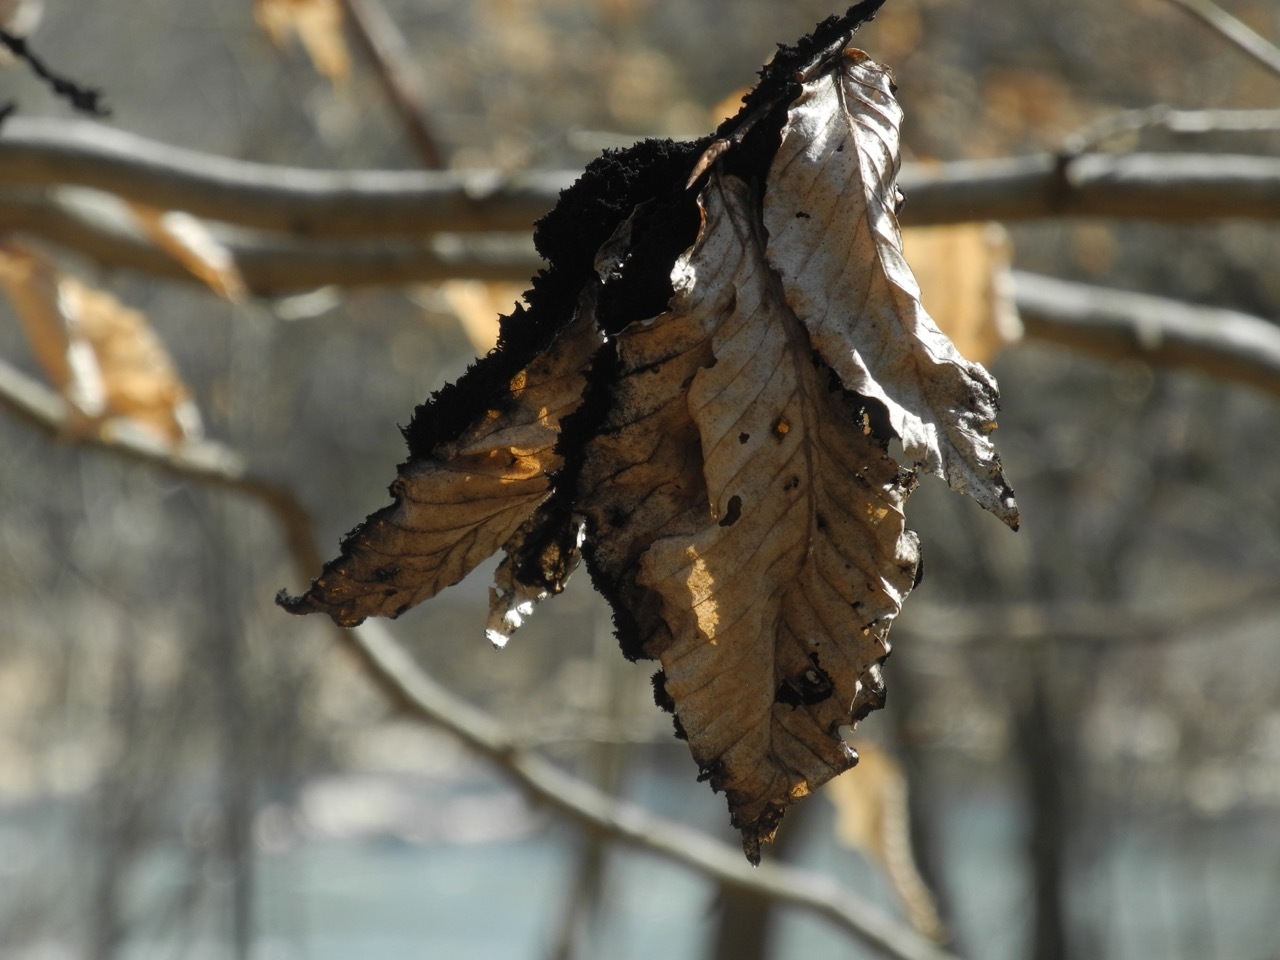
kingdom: Fungi
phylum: Ascomycota
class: Dothideomycetes
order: Capnodiales
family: Capnodiaceae
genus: Scorias
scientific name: Scorias spongiosa
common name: Black sooty mold
